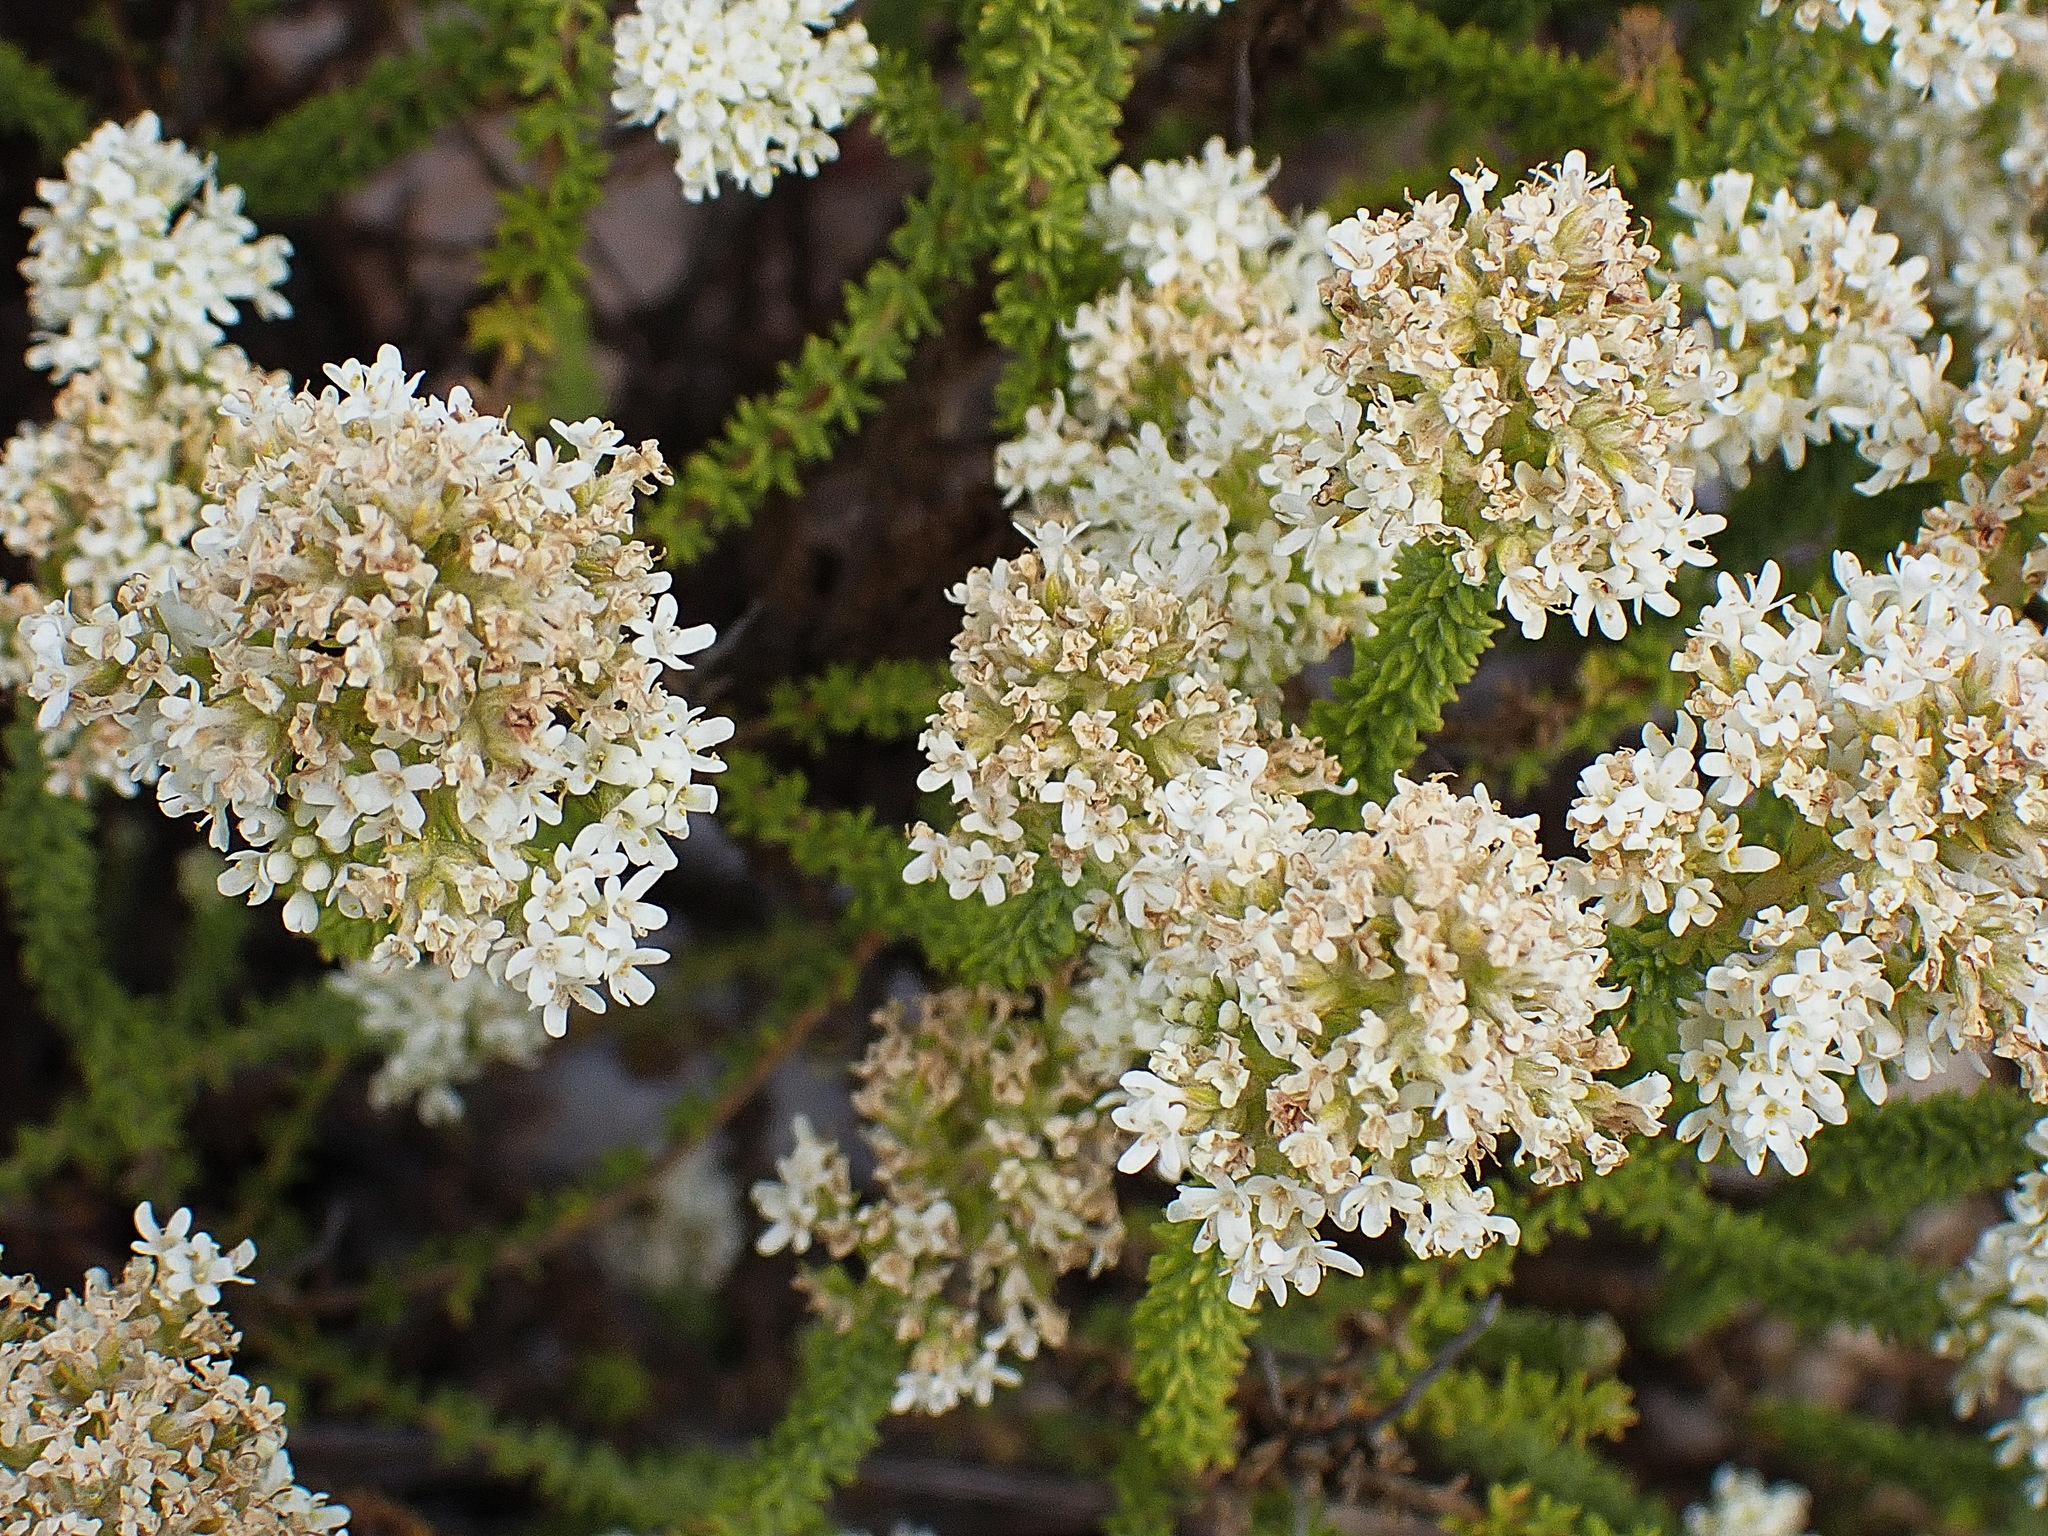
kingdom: Plantae
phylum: Tracheophyta
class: Magnoliopsida
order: Lamiales
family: Scrophulariaceae
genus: Selago
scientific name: Selago myriophylla
